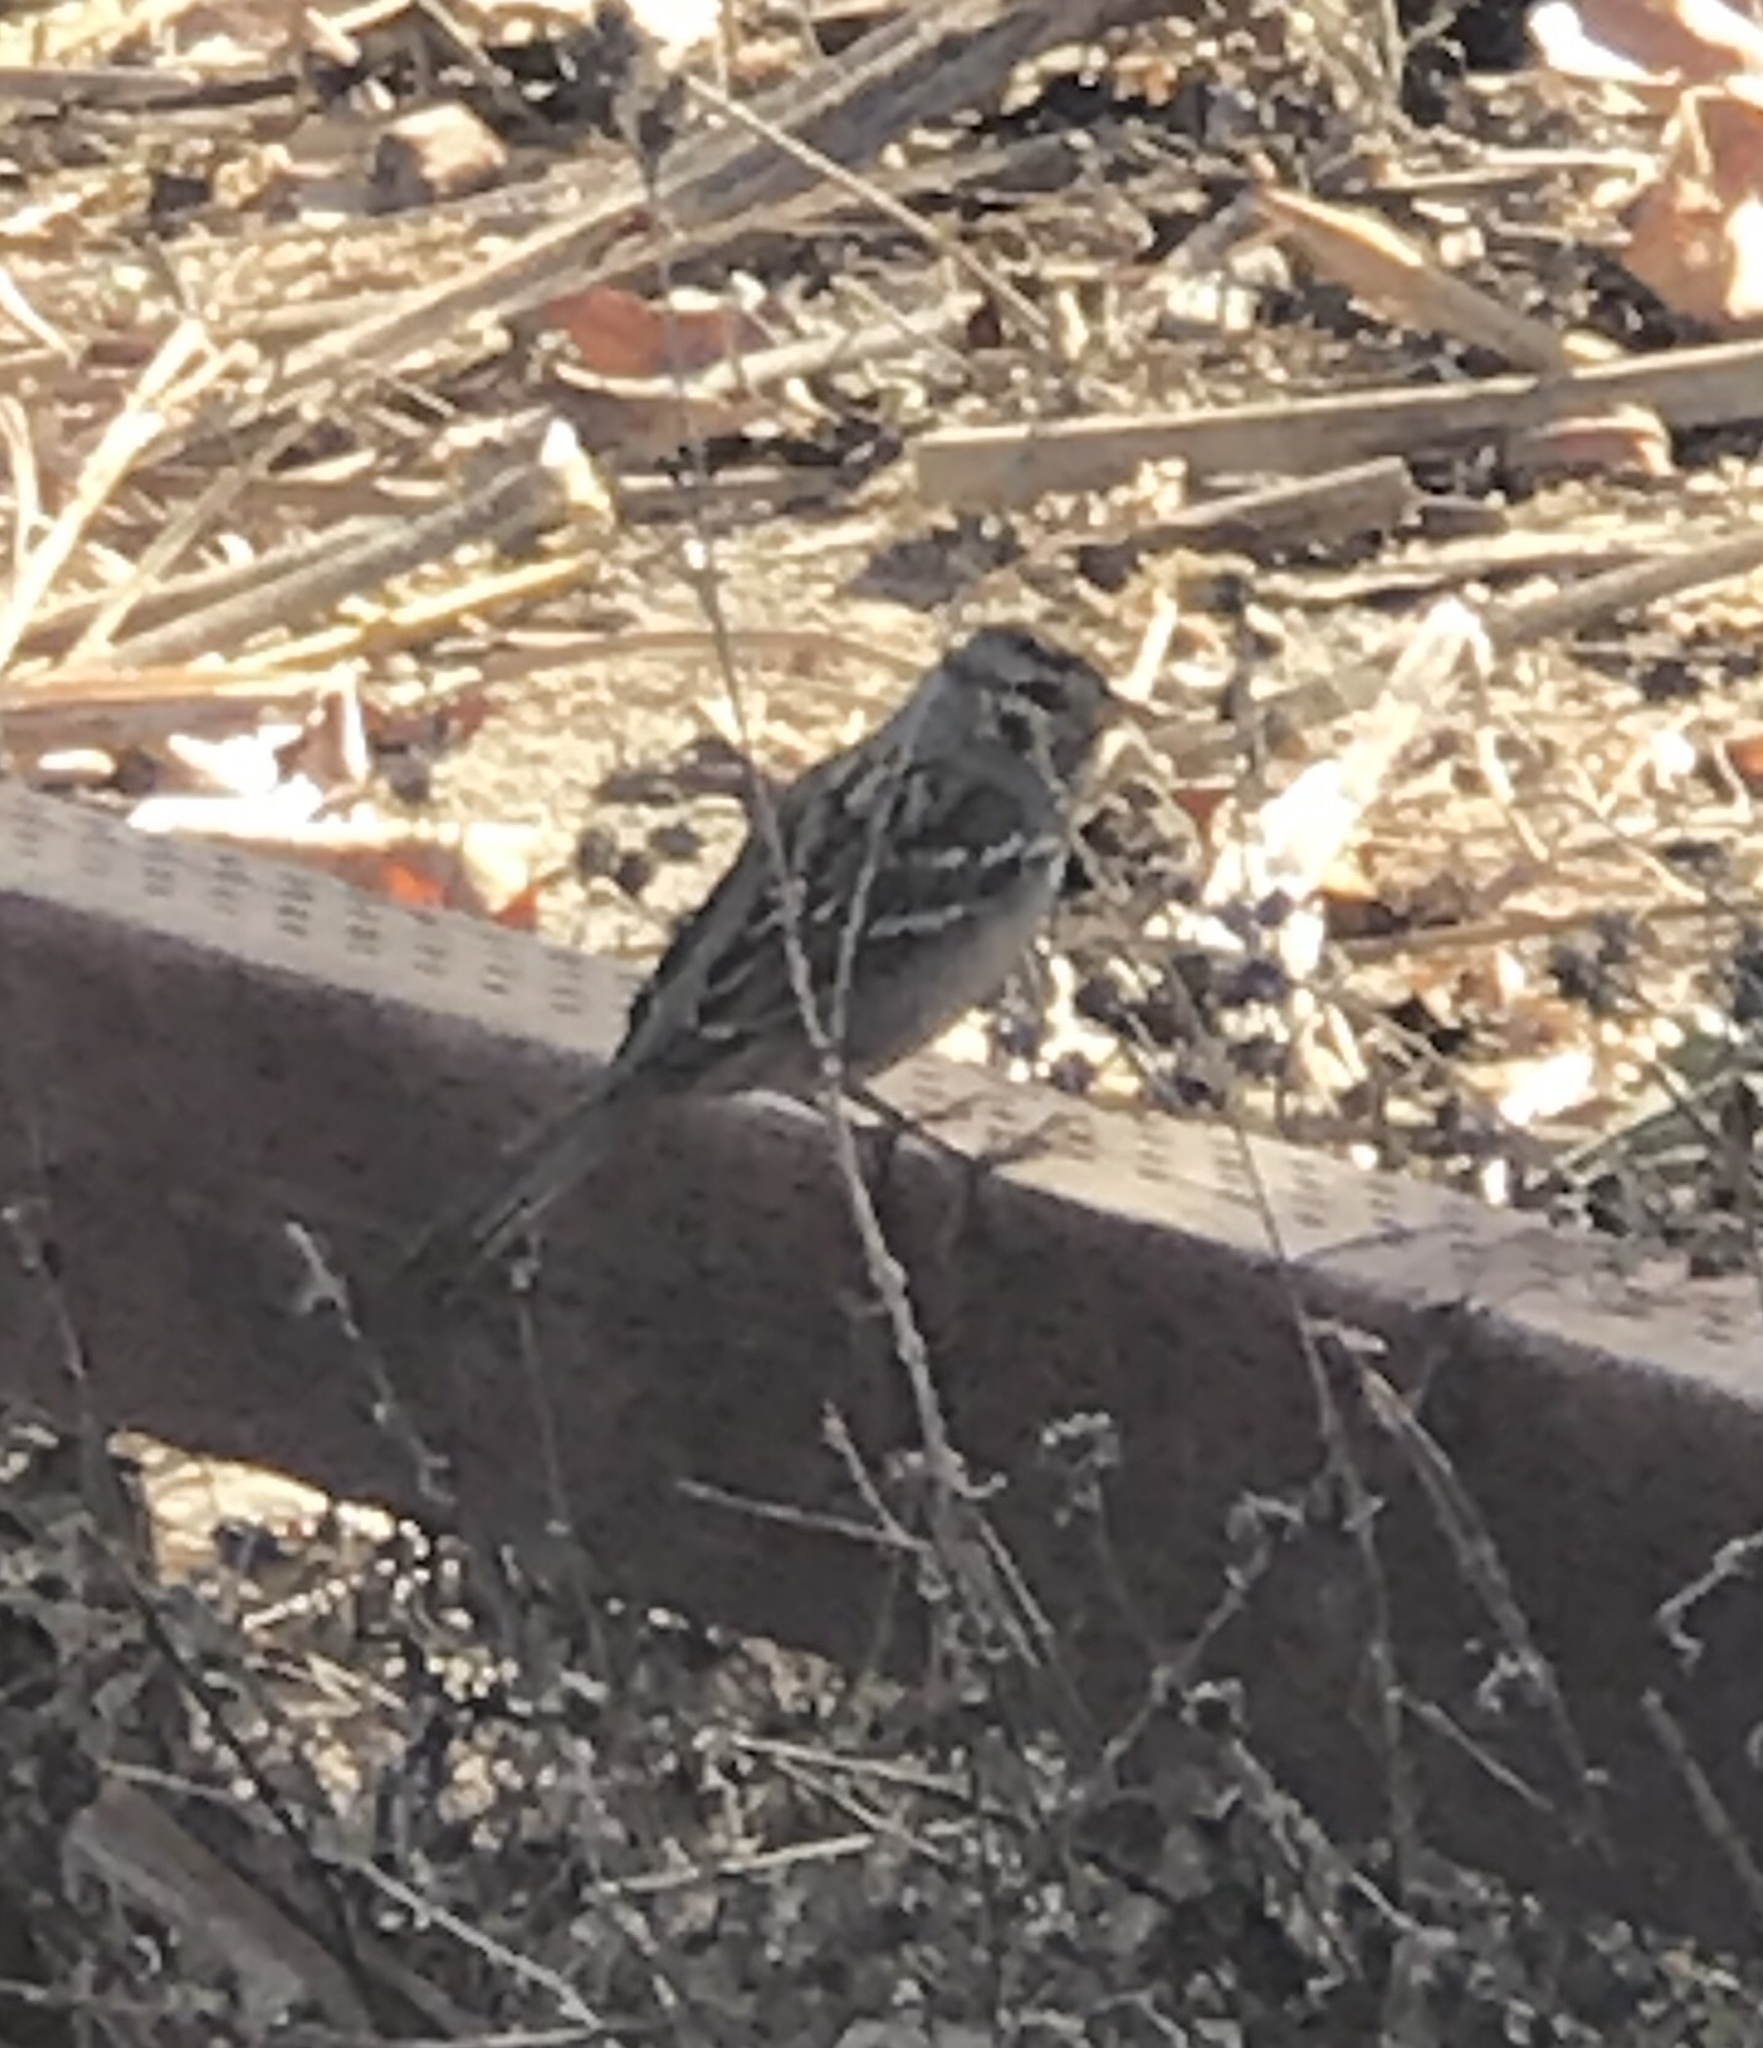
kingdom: Animalia
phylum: Chordata
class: Aves
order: Passeriformes
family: Passerellidae
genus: Zonotrichia
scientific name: Zonotrichia leucophrys
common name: White-crowned sparrow
